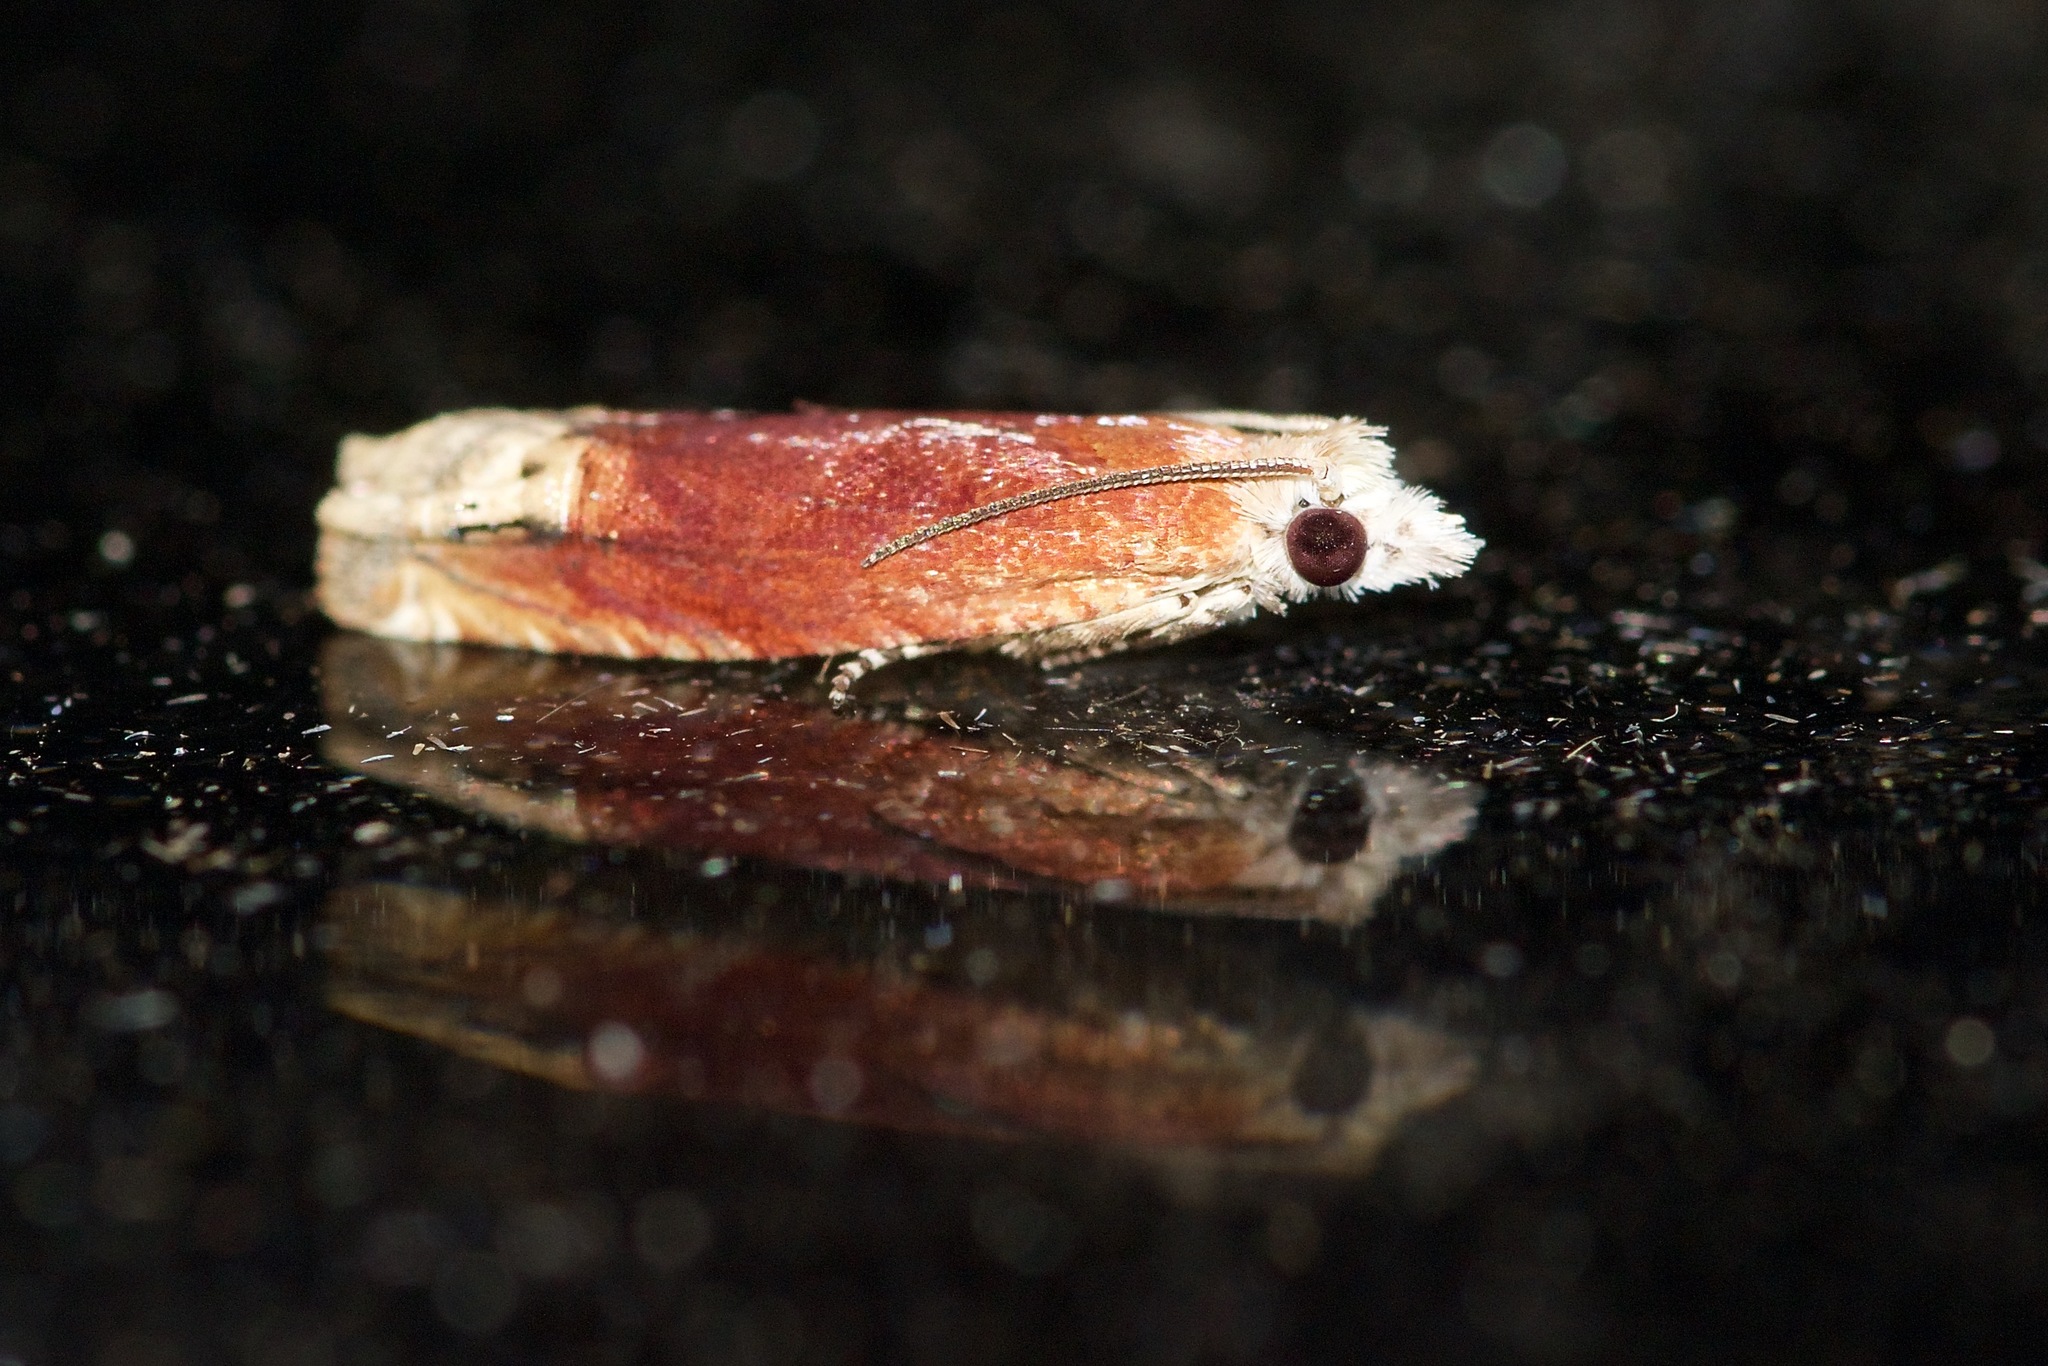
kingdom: Animalia
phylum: Arthropoda
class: Insecta
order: Lepidoptera
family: Tortricidae
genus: Eucosma
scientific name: Eucosma raracana
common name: Reddish eucosma moth
